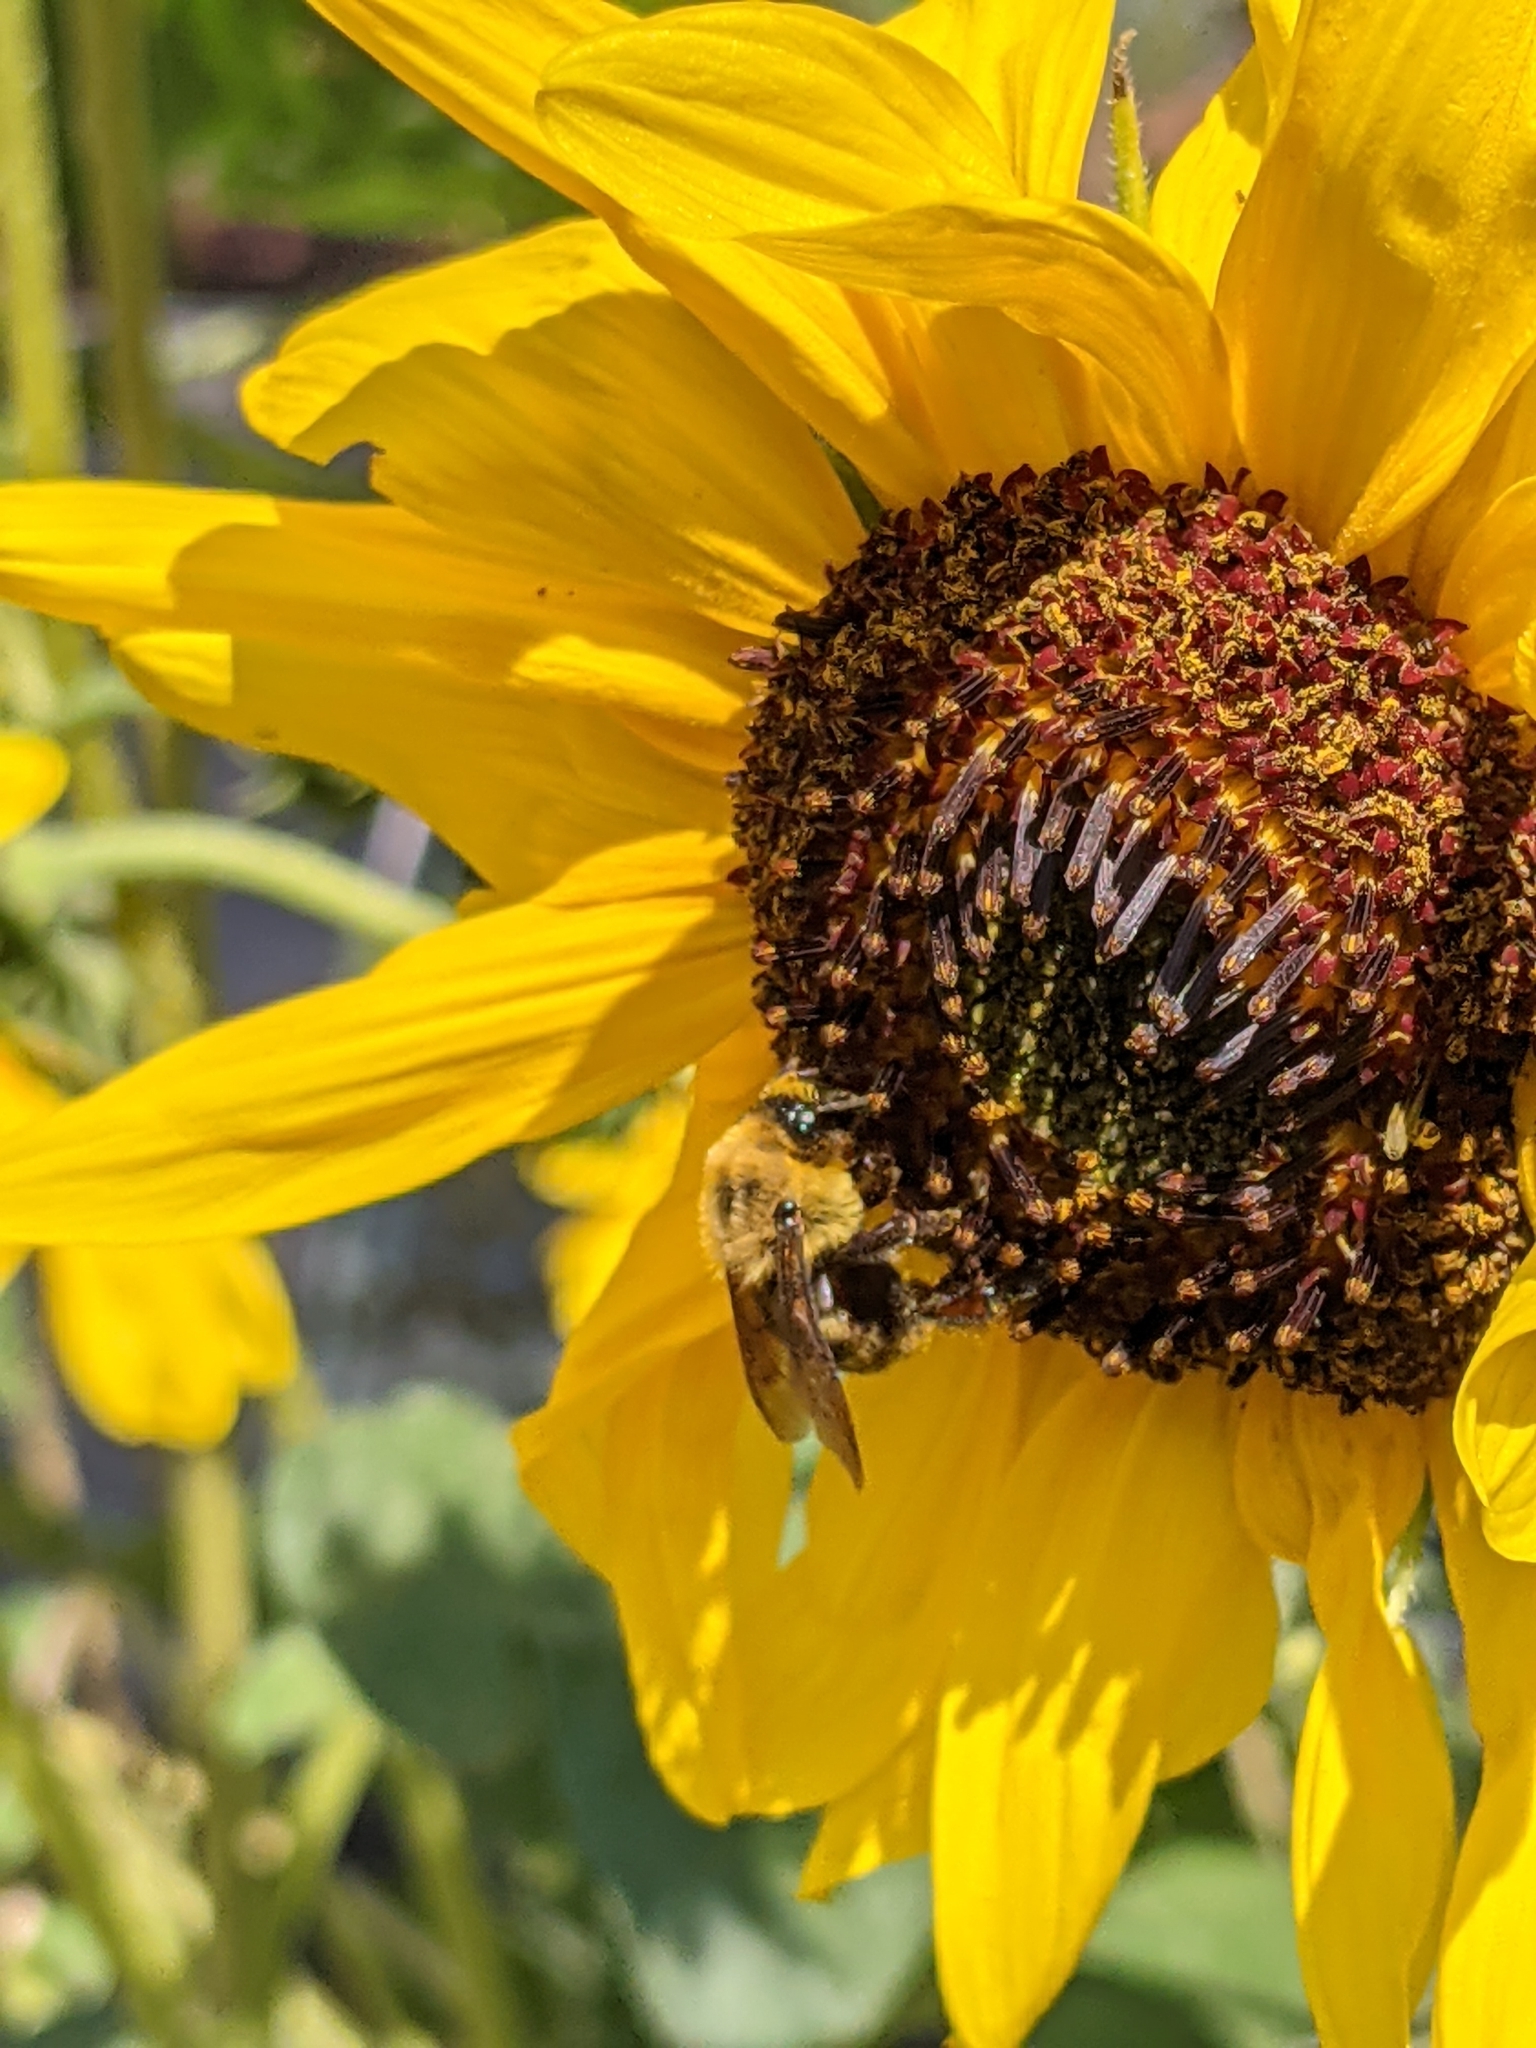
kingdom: Animalia
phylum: Arthropoda
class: Insecta
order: Hymenoptera
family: Apidae
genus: Bombus
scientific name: Bombus griseocollis
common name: Brown-belted bumble bee
